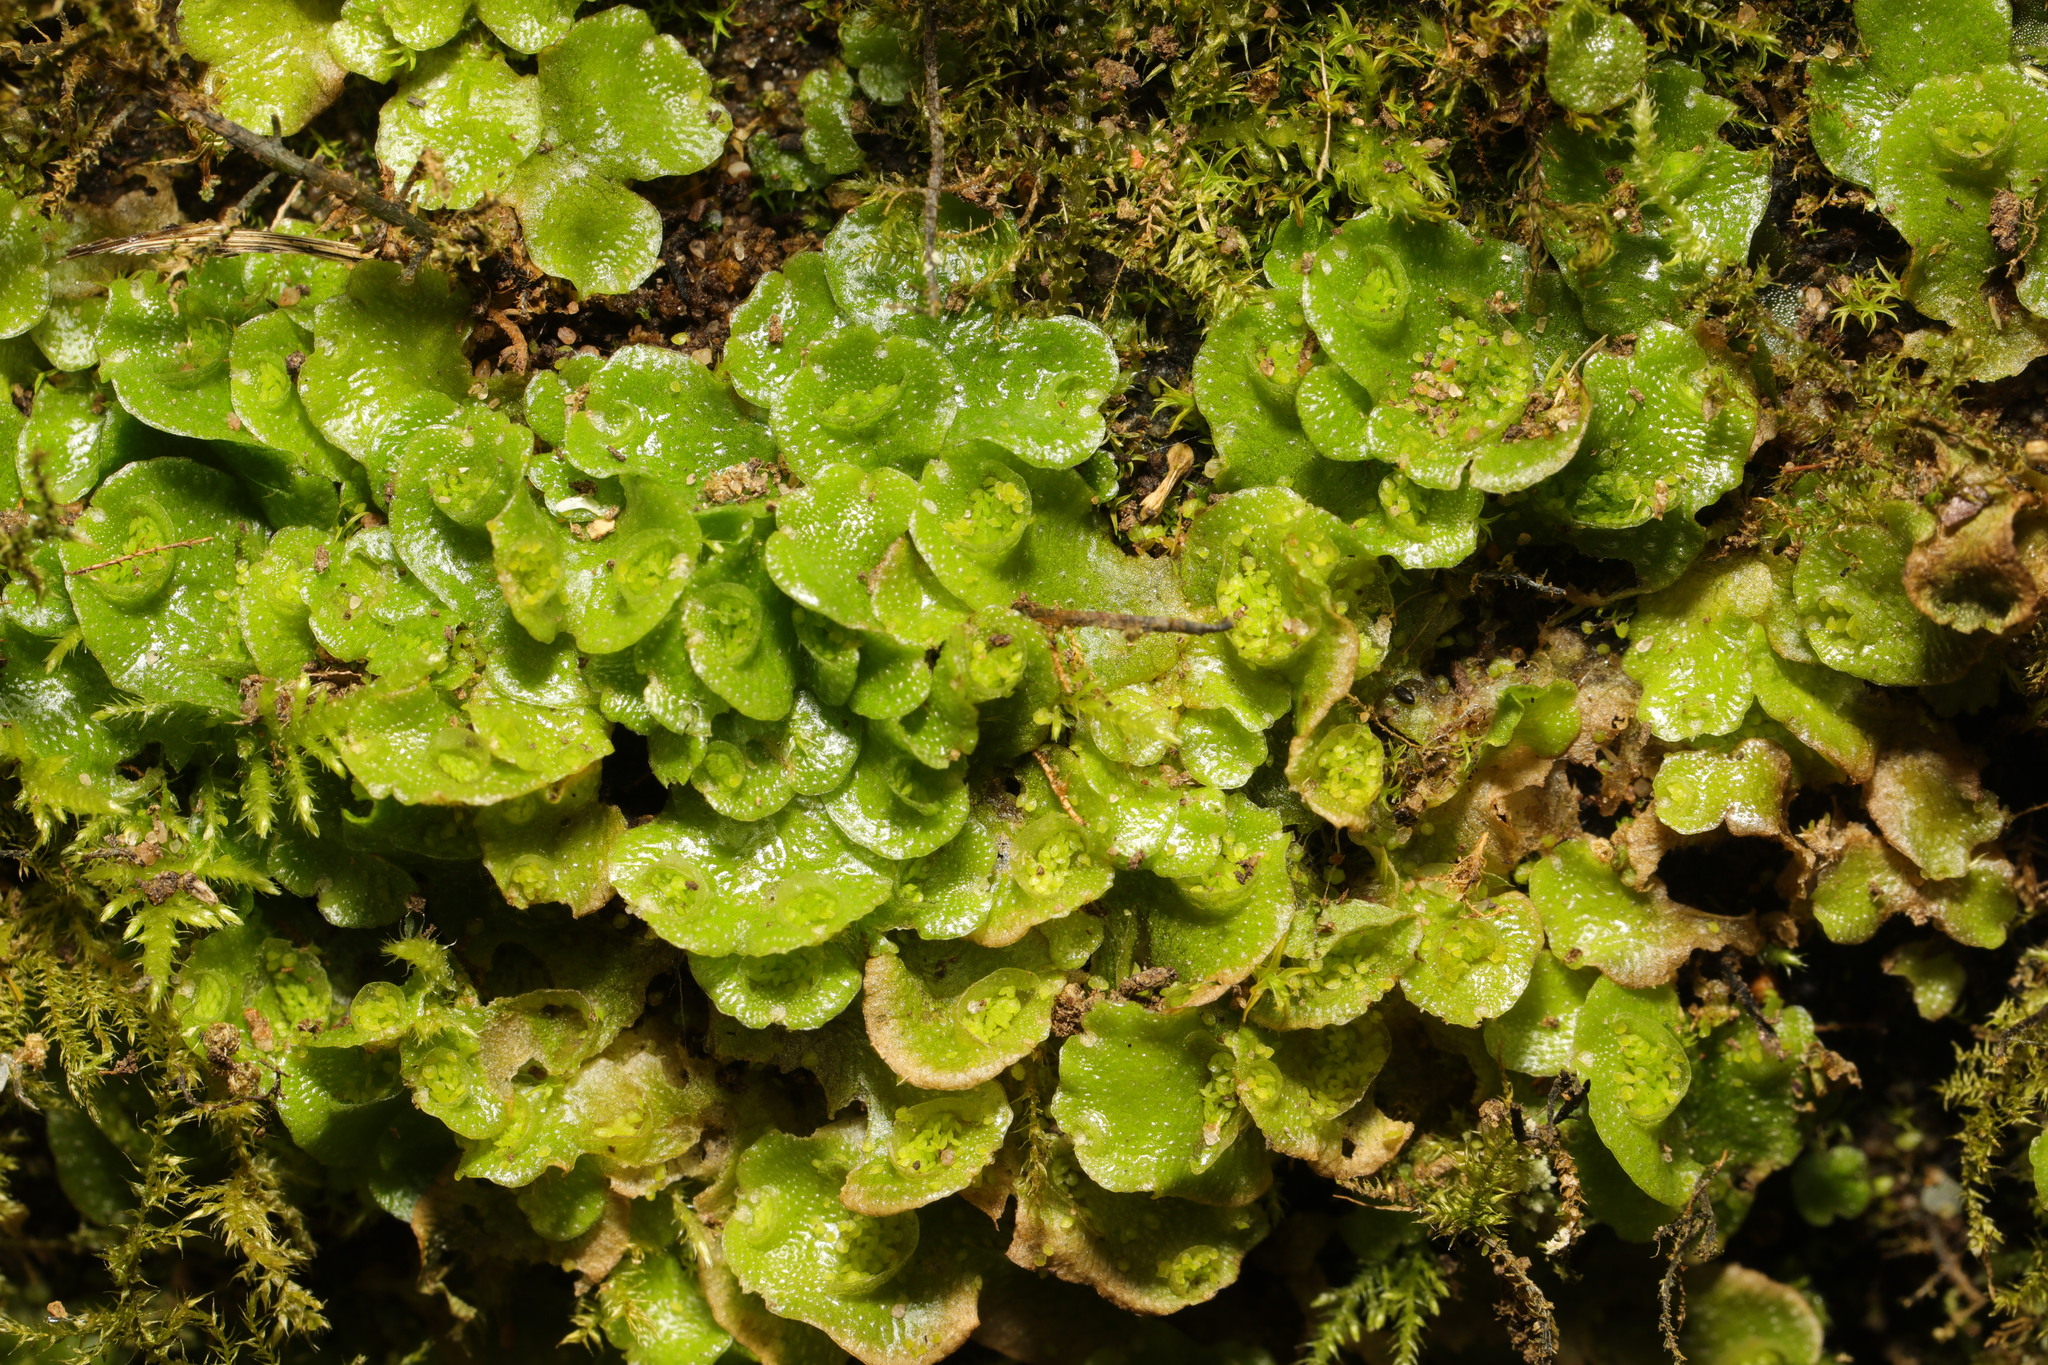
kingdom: Plantae
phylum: Marchantiophyta
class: Marchantiopsida
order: Lunulariales
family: Lunulariaceae
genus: Lunularia
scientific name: Lunularia cruciata
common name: Crescent-cup liverwort
